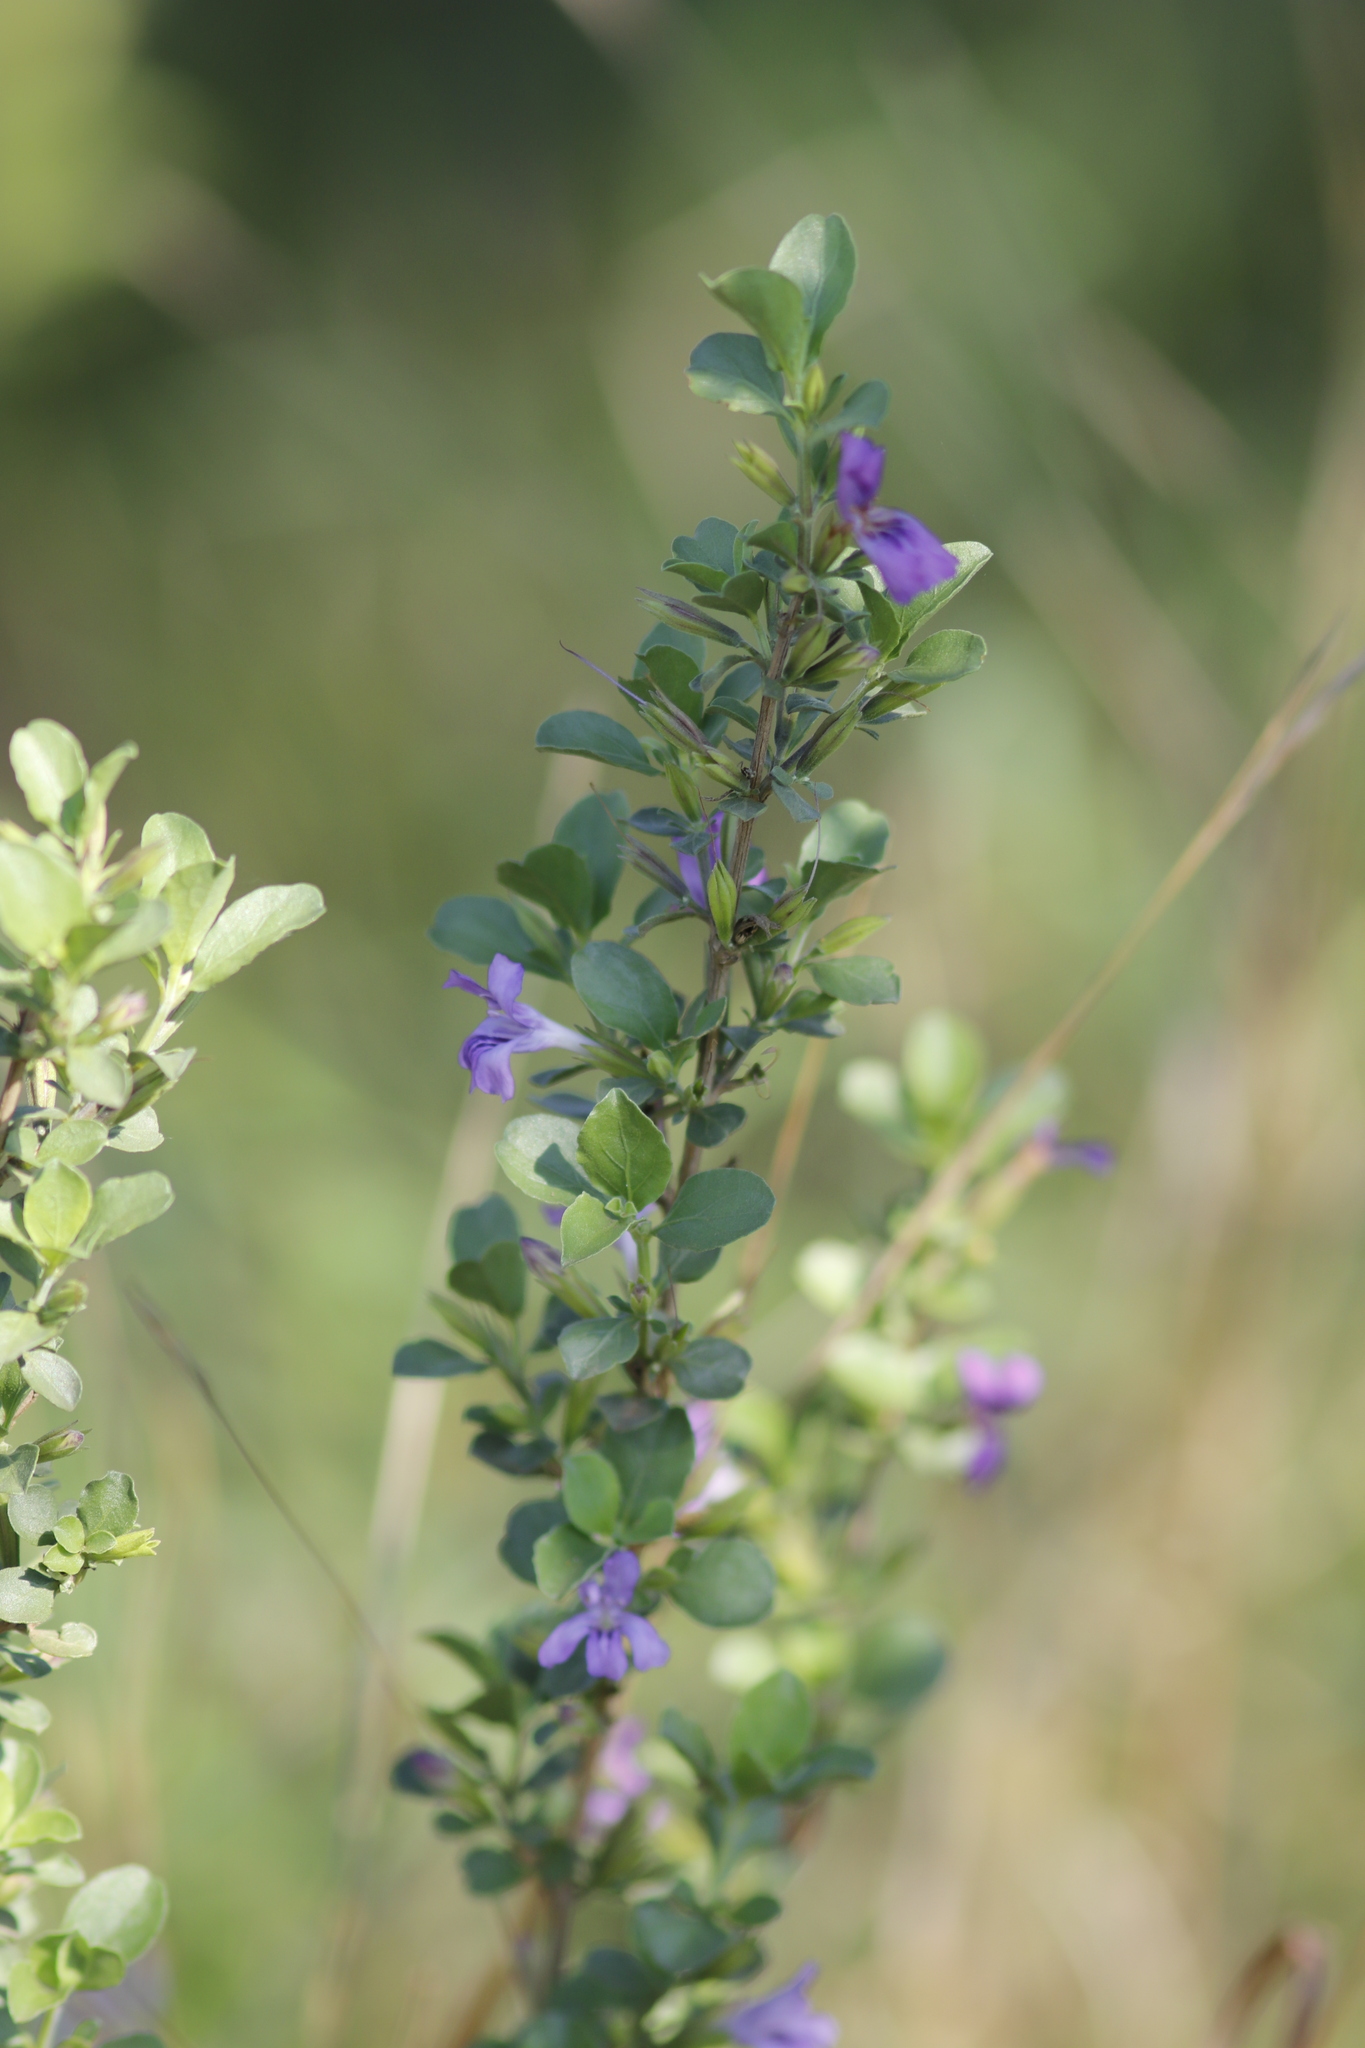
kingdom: Plantae
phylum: Tracheophyta
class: Magnoliopsida
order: Lamiales
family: Acanthaceae
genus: Dyschoriste
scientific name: Dyschoriste hildebrandtii
